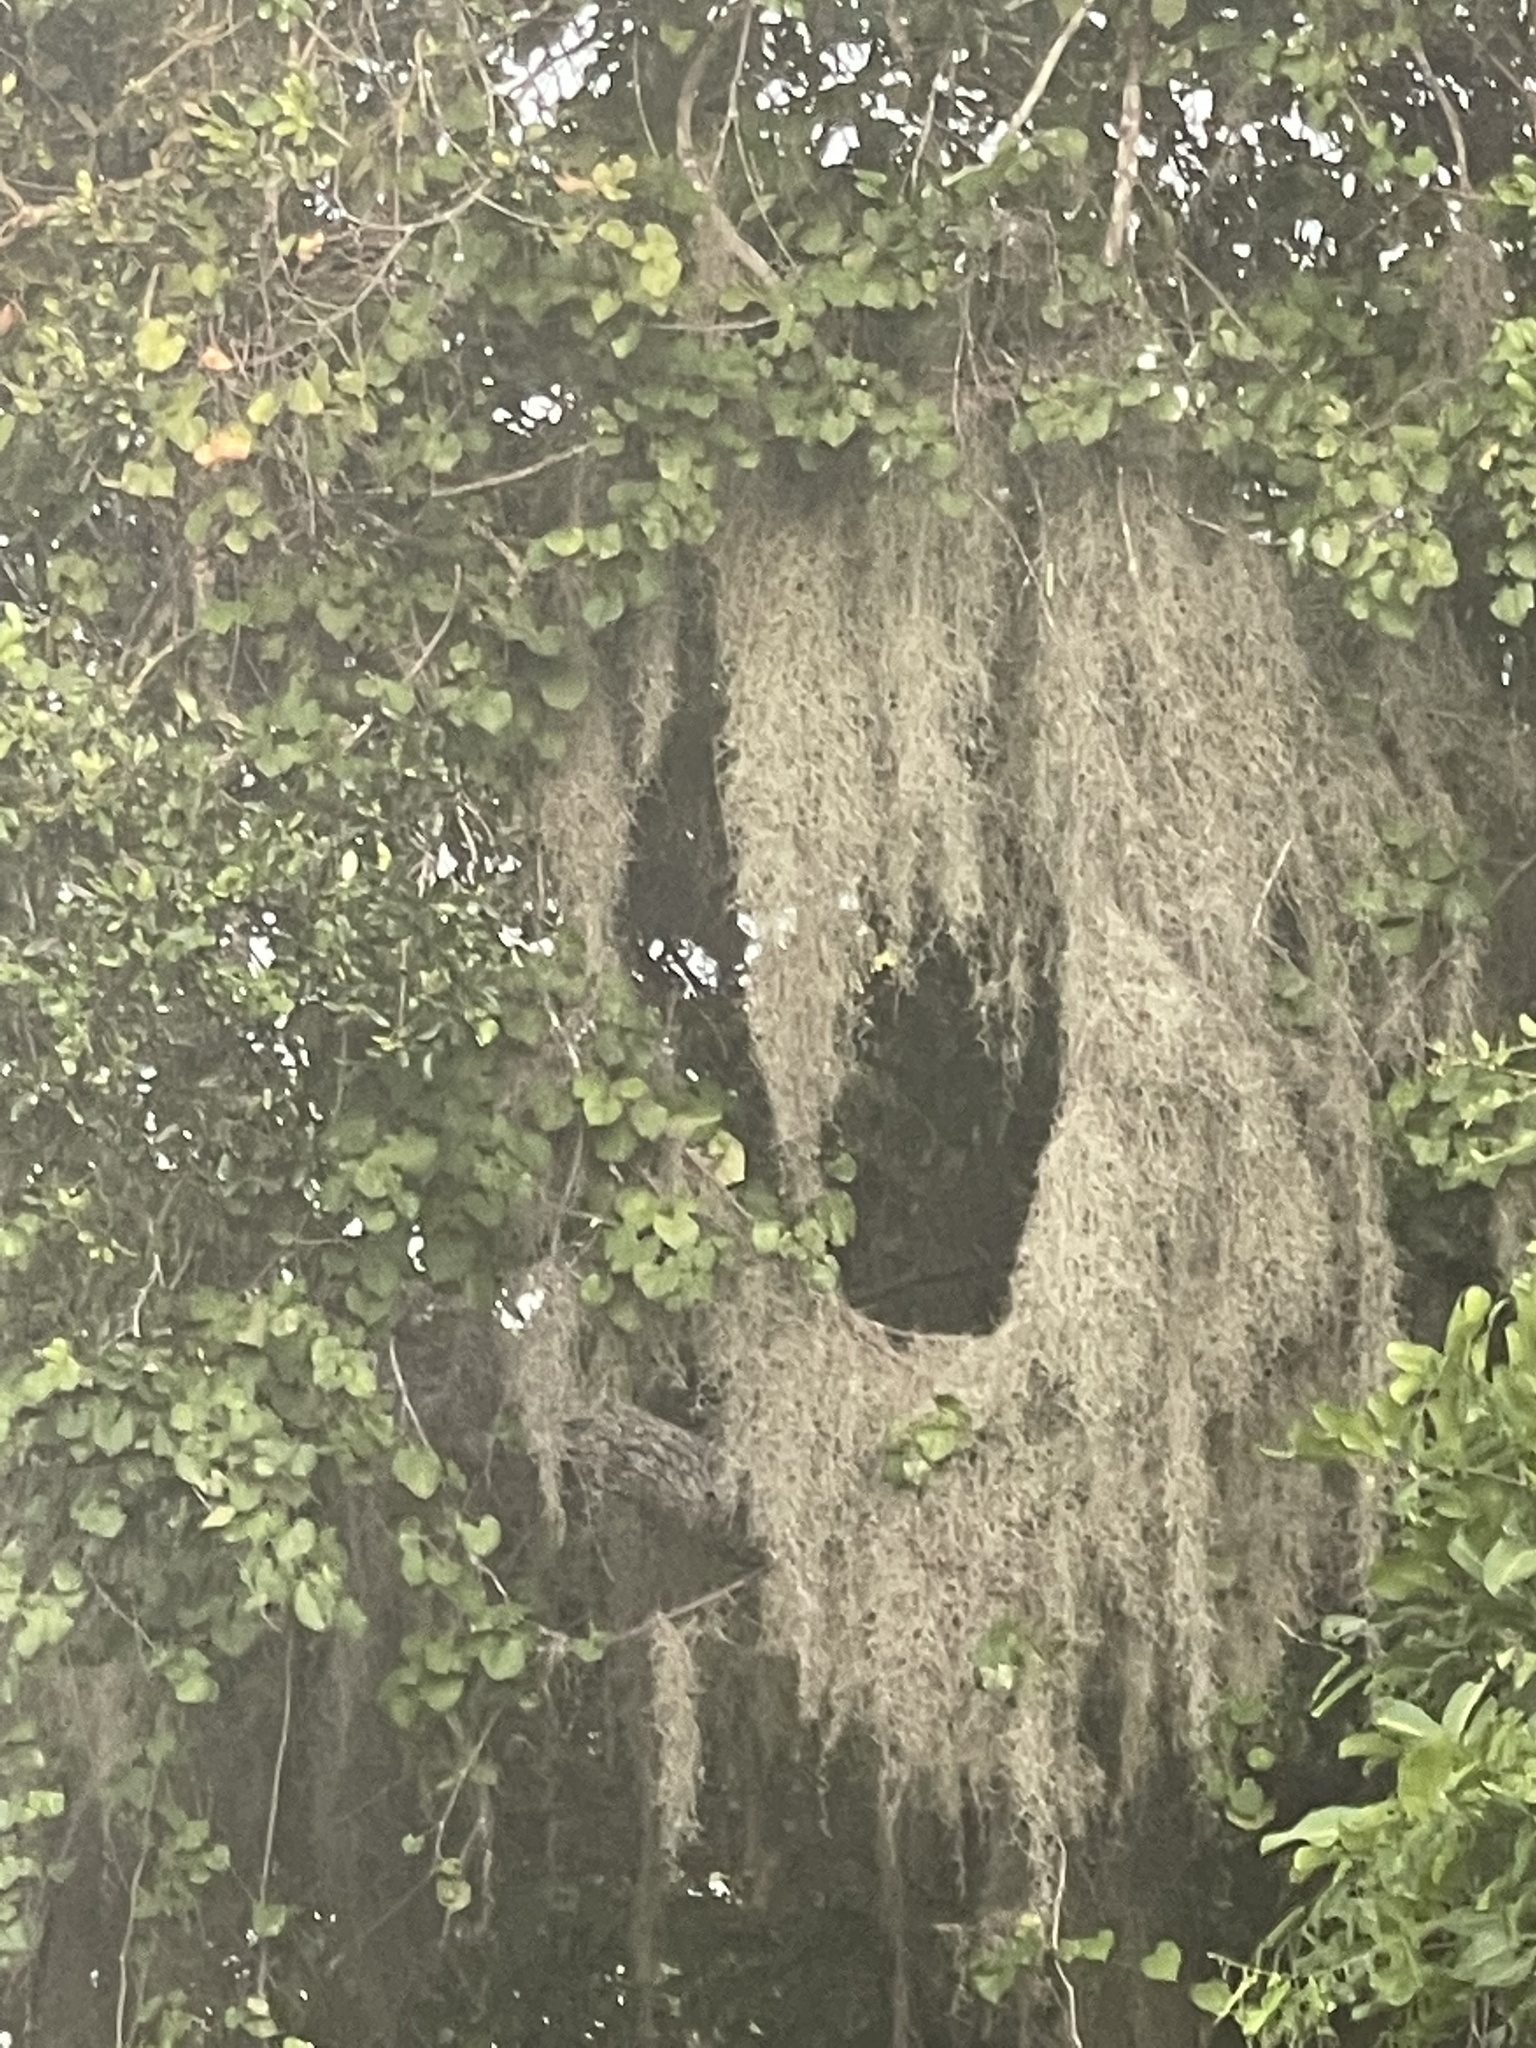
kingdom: Plantae
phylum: Tracheophyta
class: Liliopsida
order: Poales
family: Bromeliaceae
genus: Tillandsia
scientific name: Tillandsia usneoides
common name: Spanish moss
